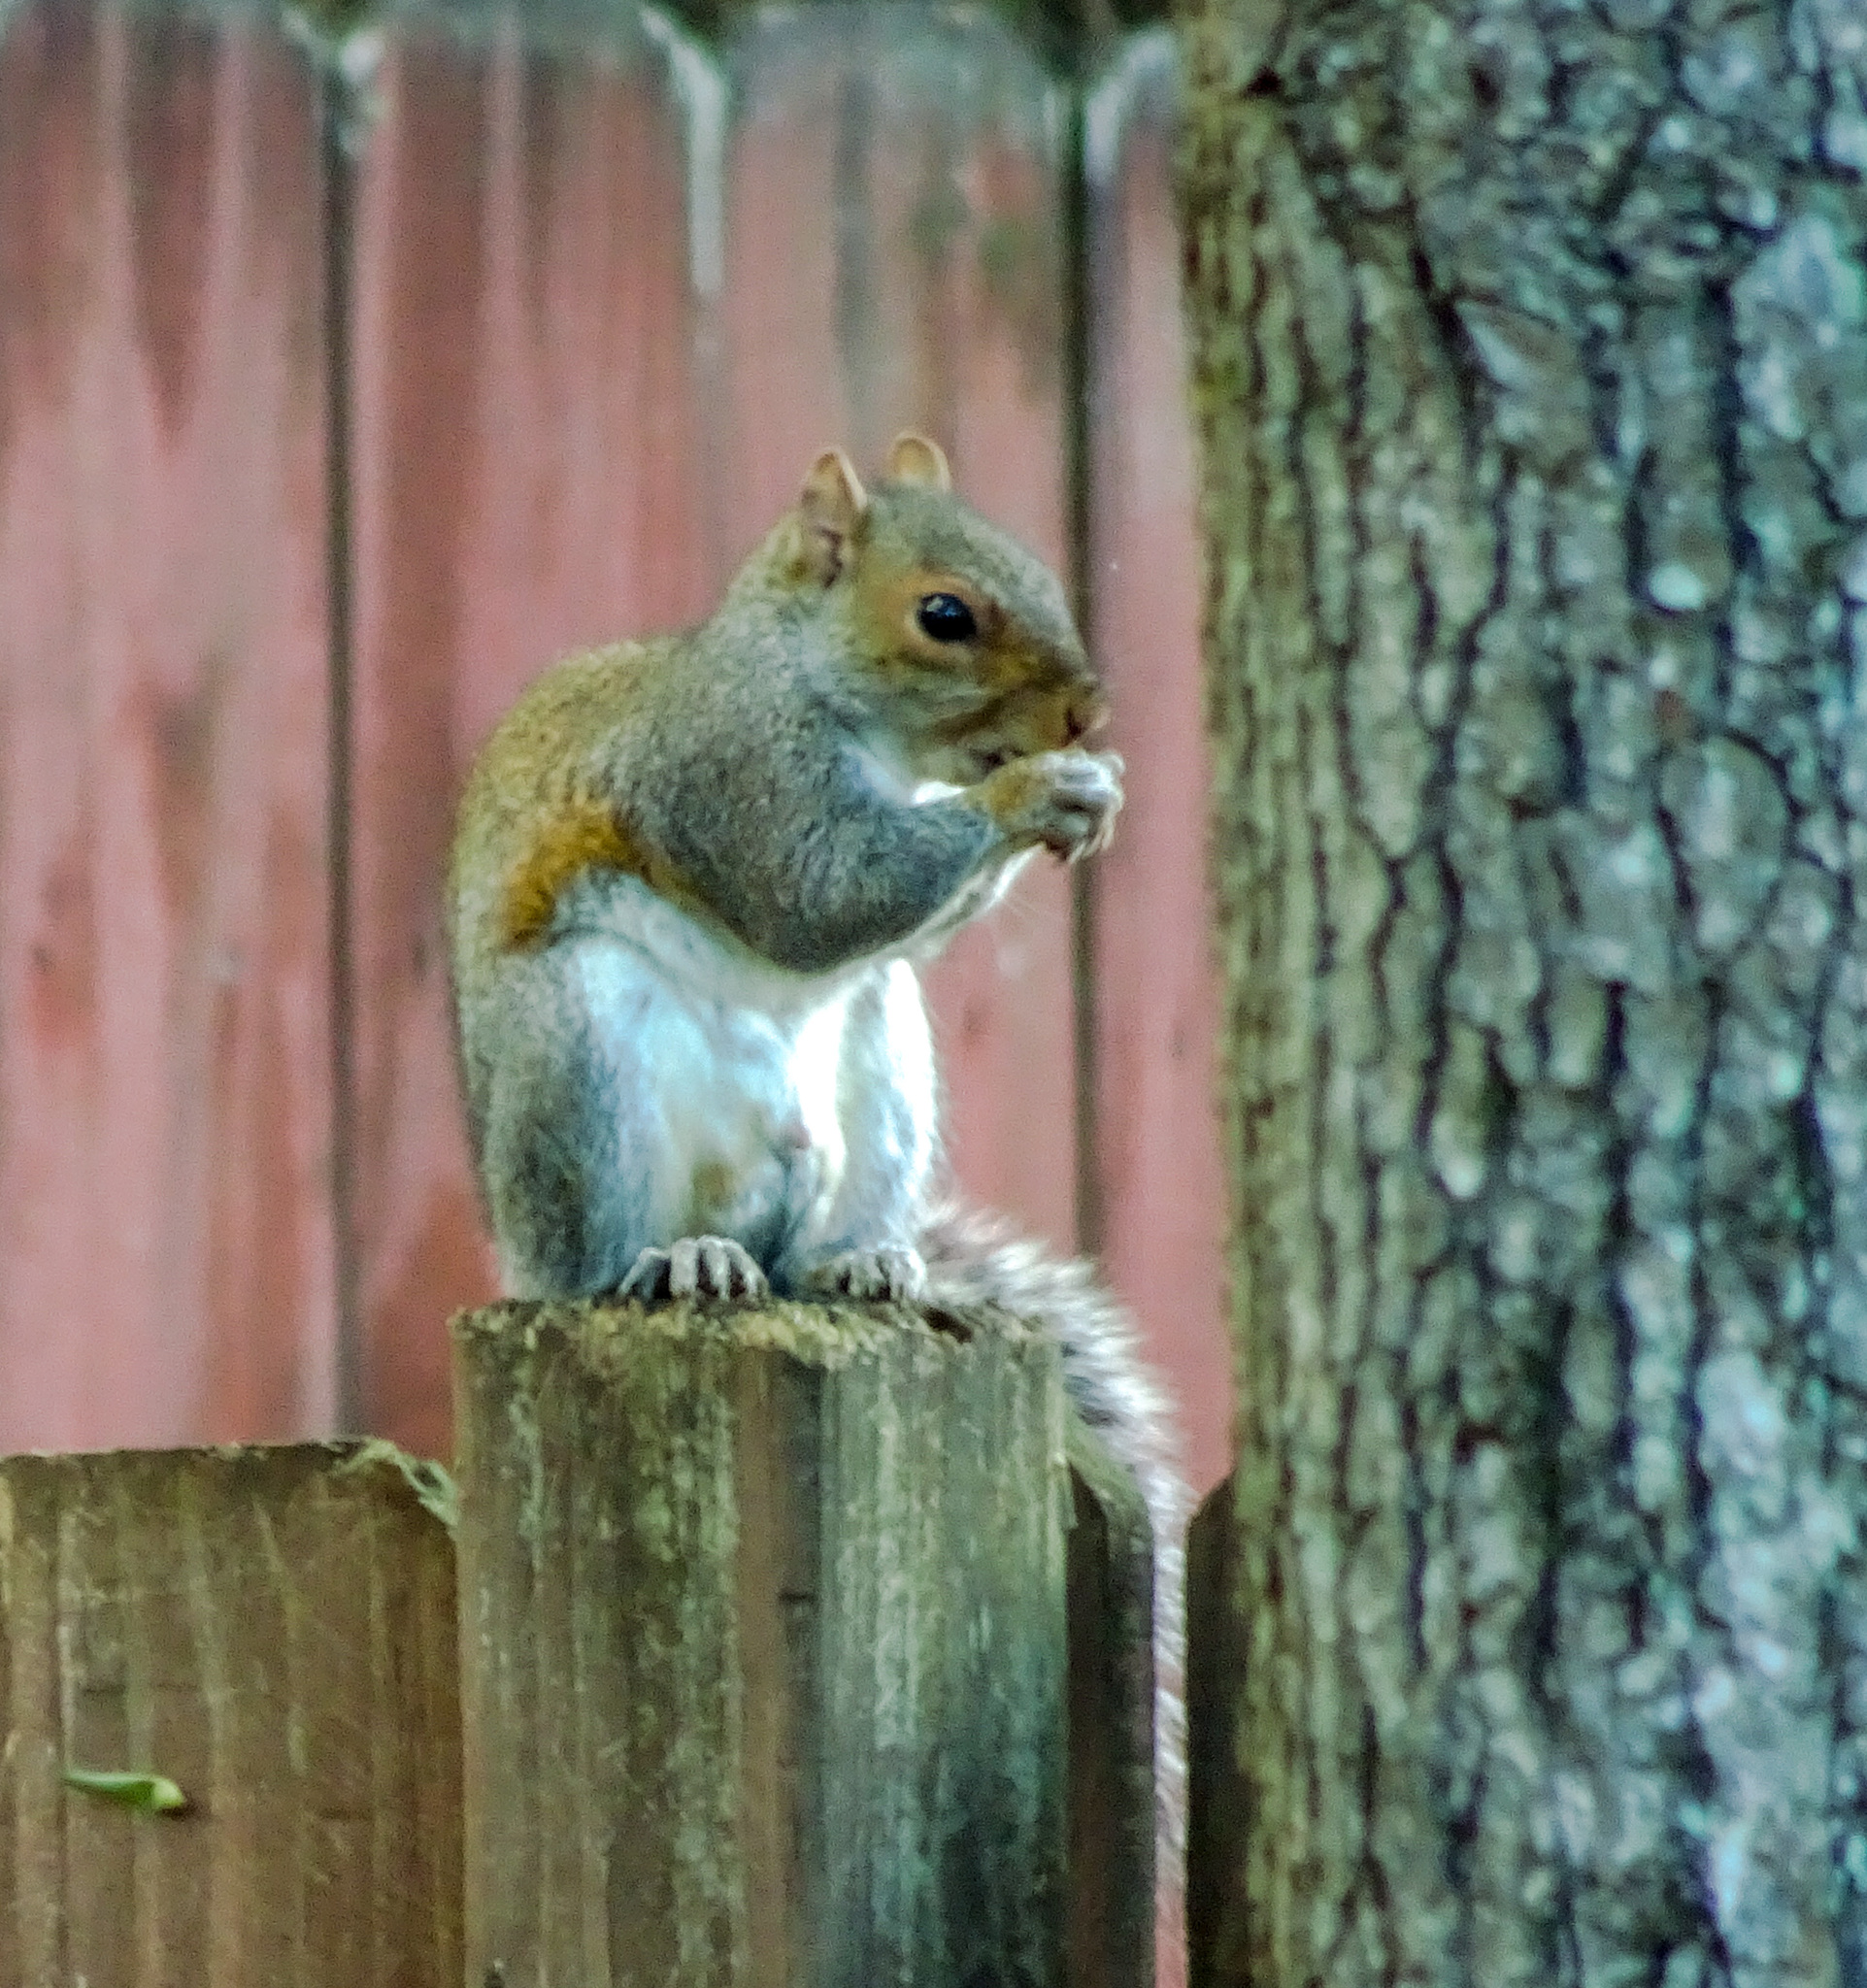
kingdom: Animalia
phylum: Chordata
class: Mammalia
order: Rodentia
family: Sciuridae
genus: Sciurus
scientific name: Sciurus carolinensis
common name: Eastern gray squirrel
